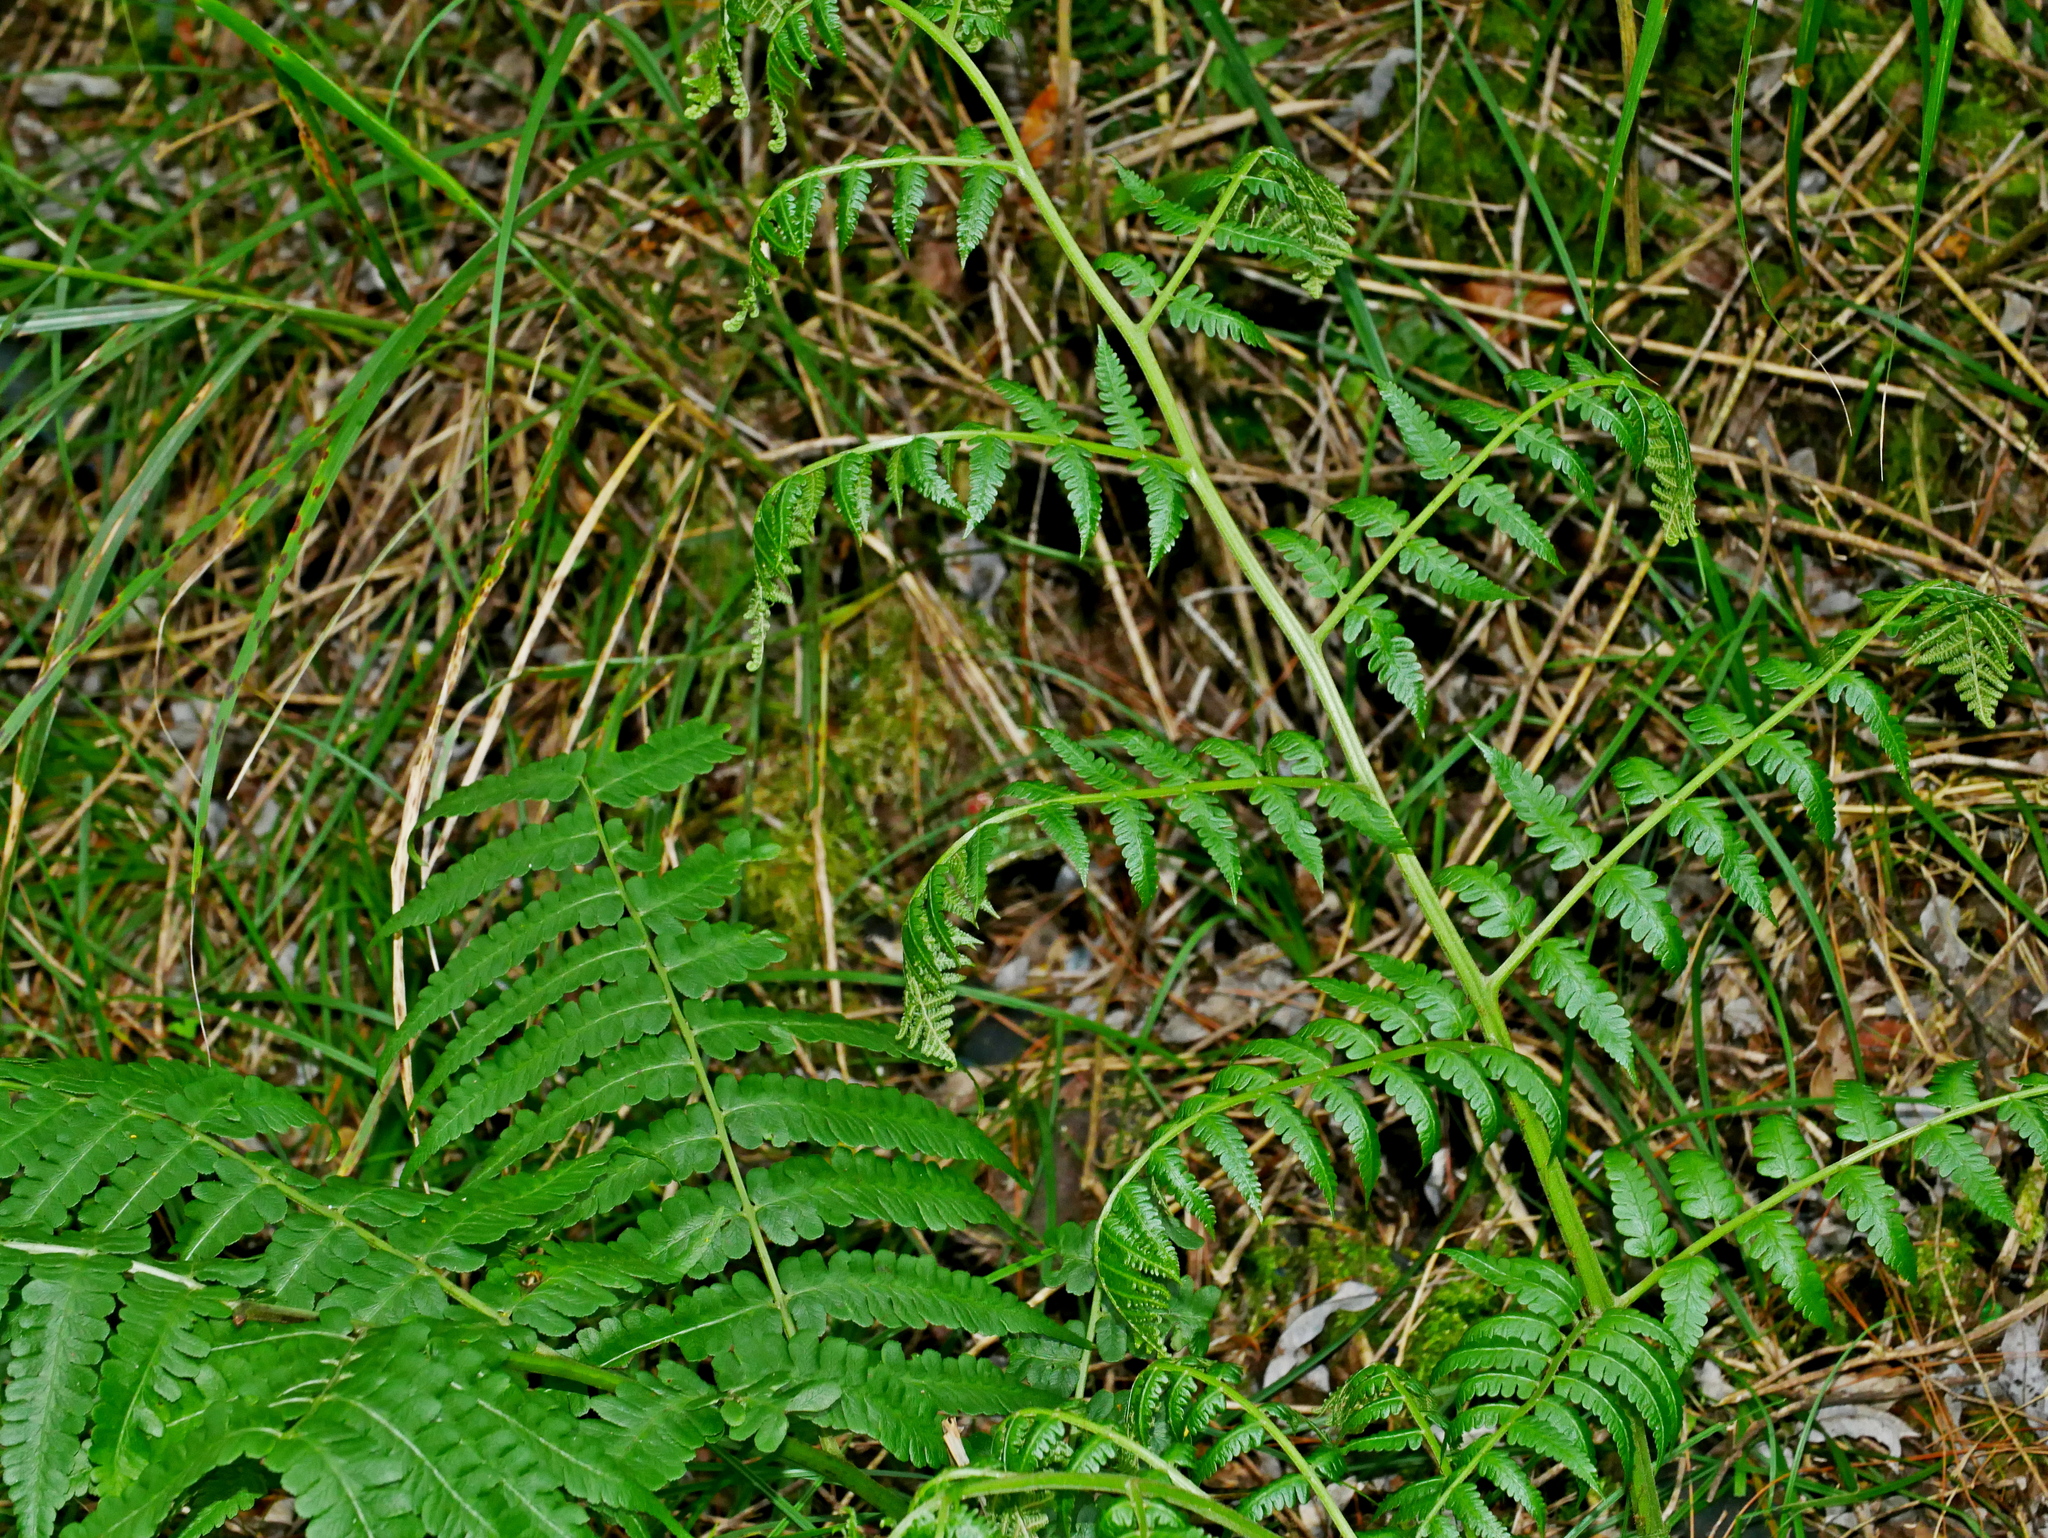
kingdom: Plantae
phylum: Tracheophyta
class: Polypodiopsida
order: Polypodiales
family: Athyriaceae
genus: Diplazium
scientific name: Diplazium pseudodoederleinii
